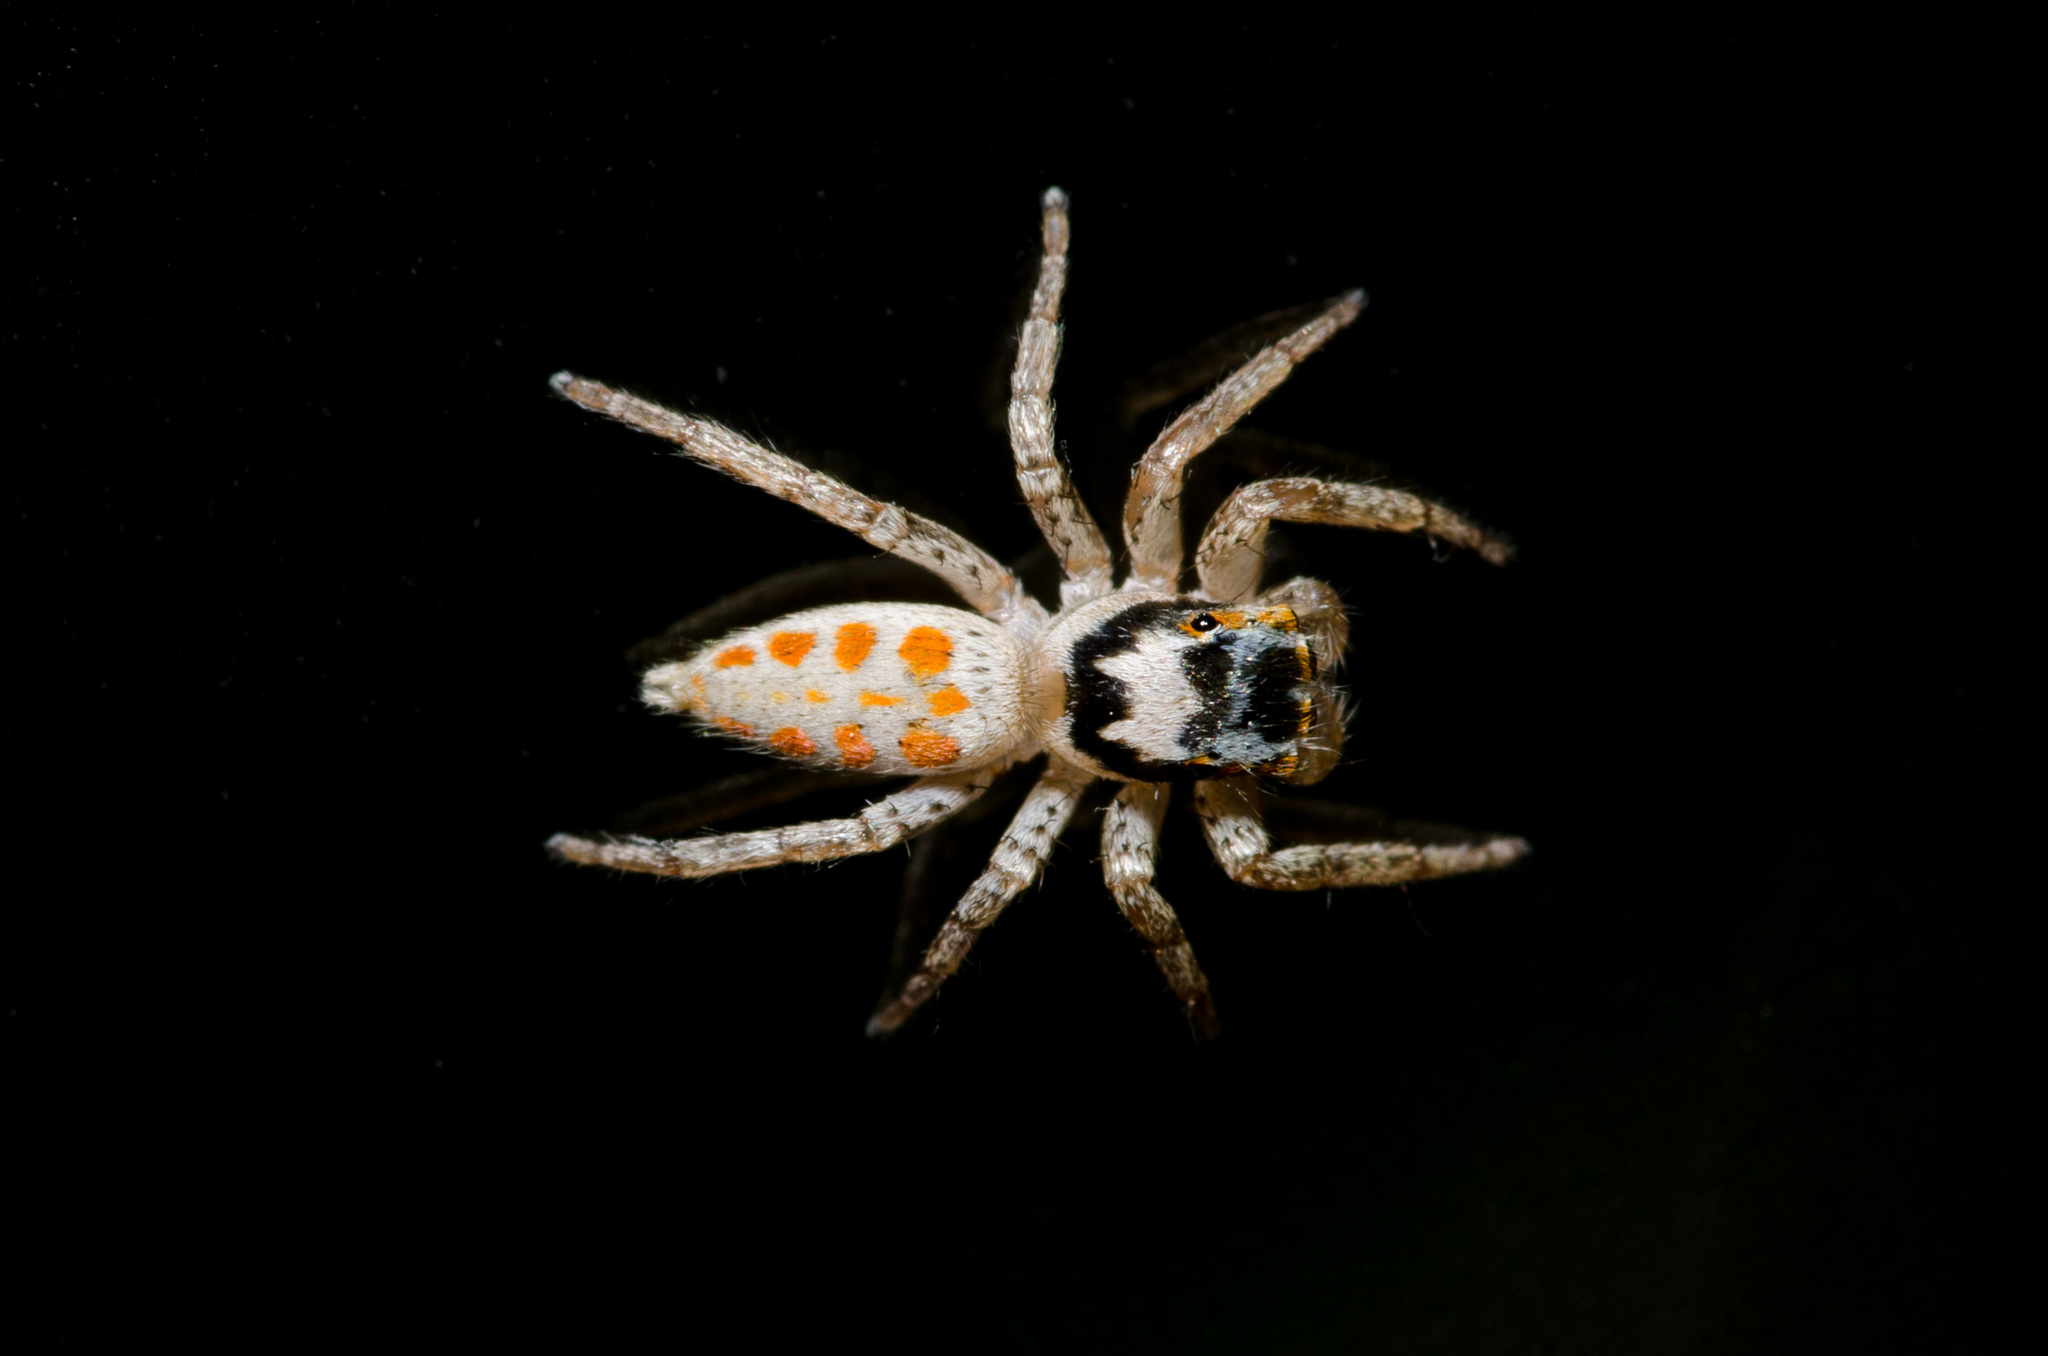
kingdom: Animalia
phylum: Arthropoda
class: Arachnida
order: Araneae
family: Salticidae
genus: Paramaevia
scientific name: Paramaevia poultoni
